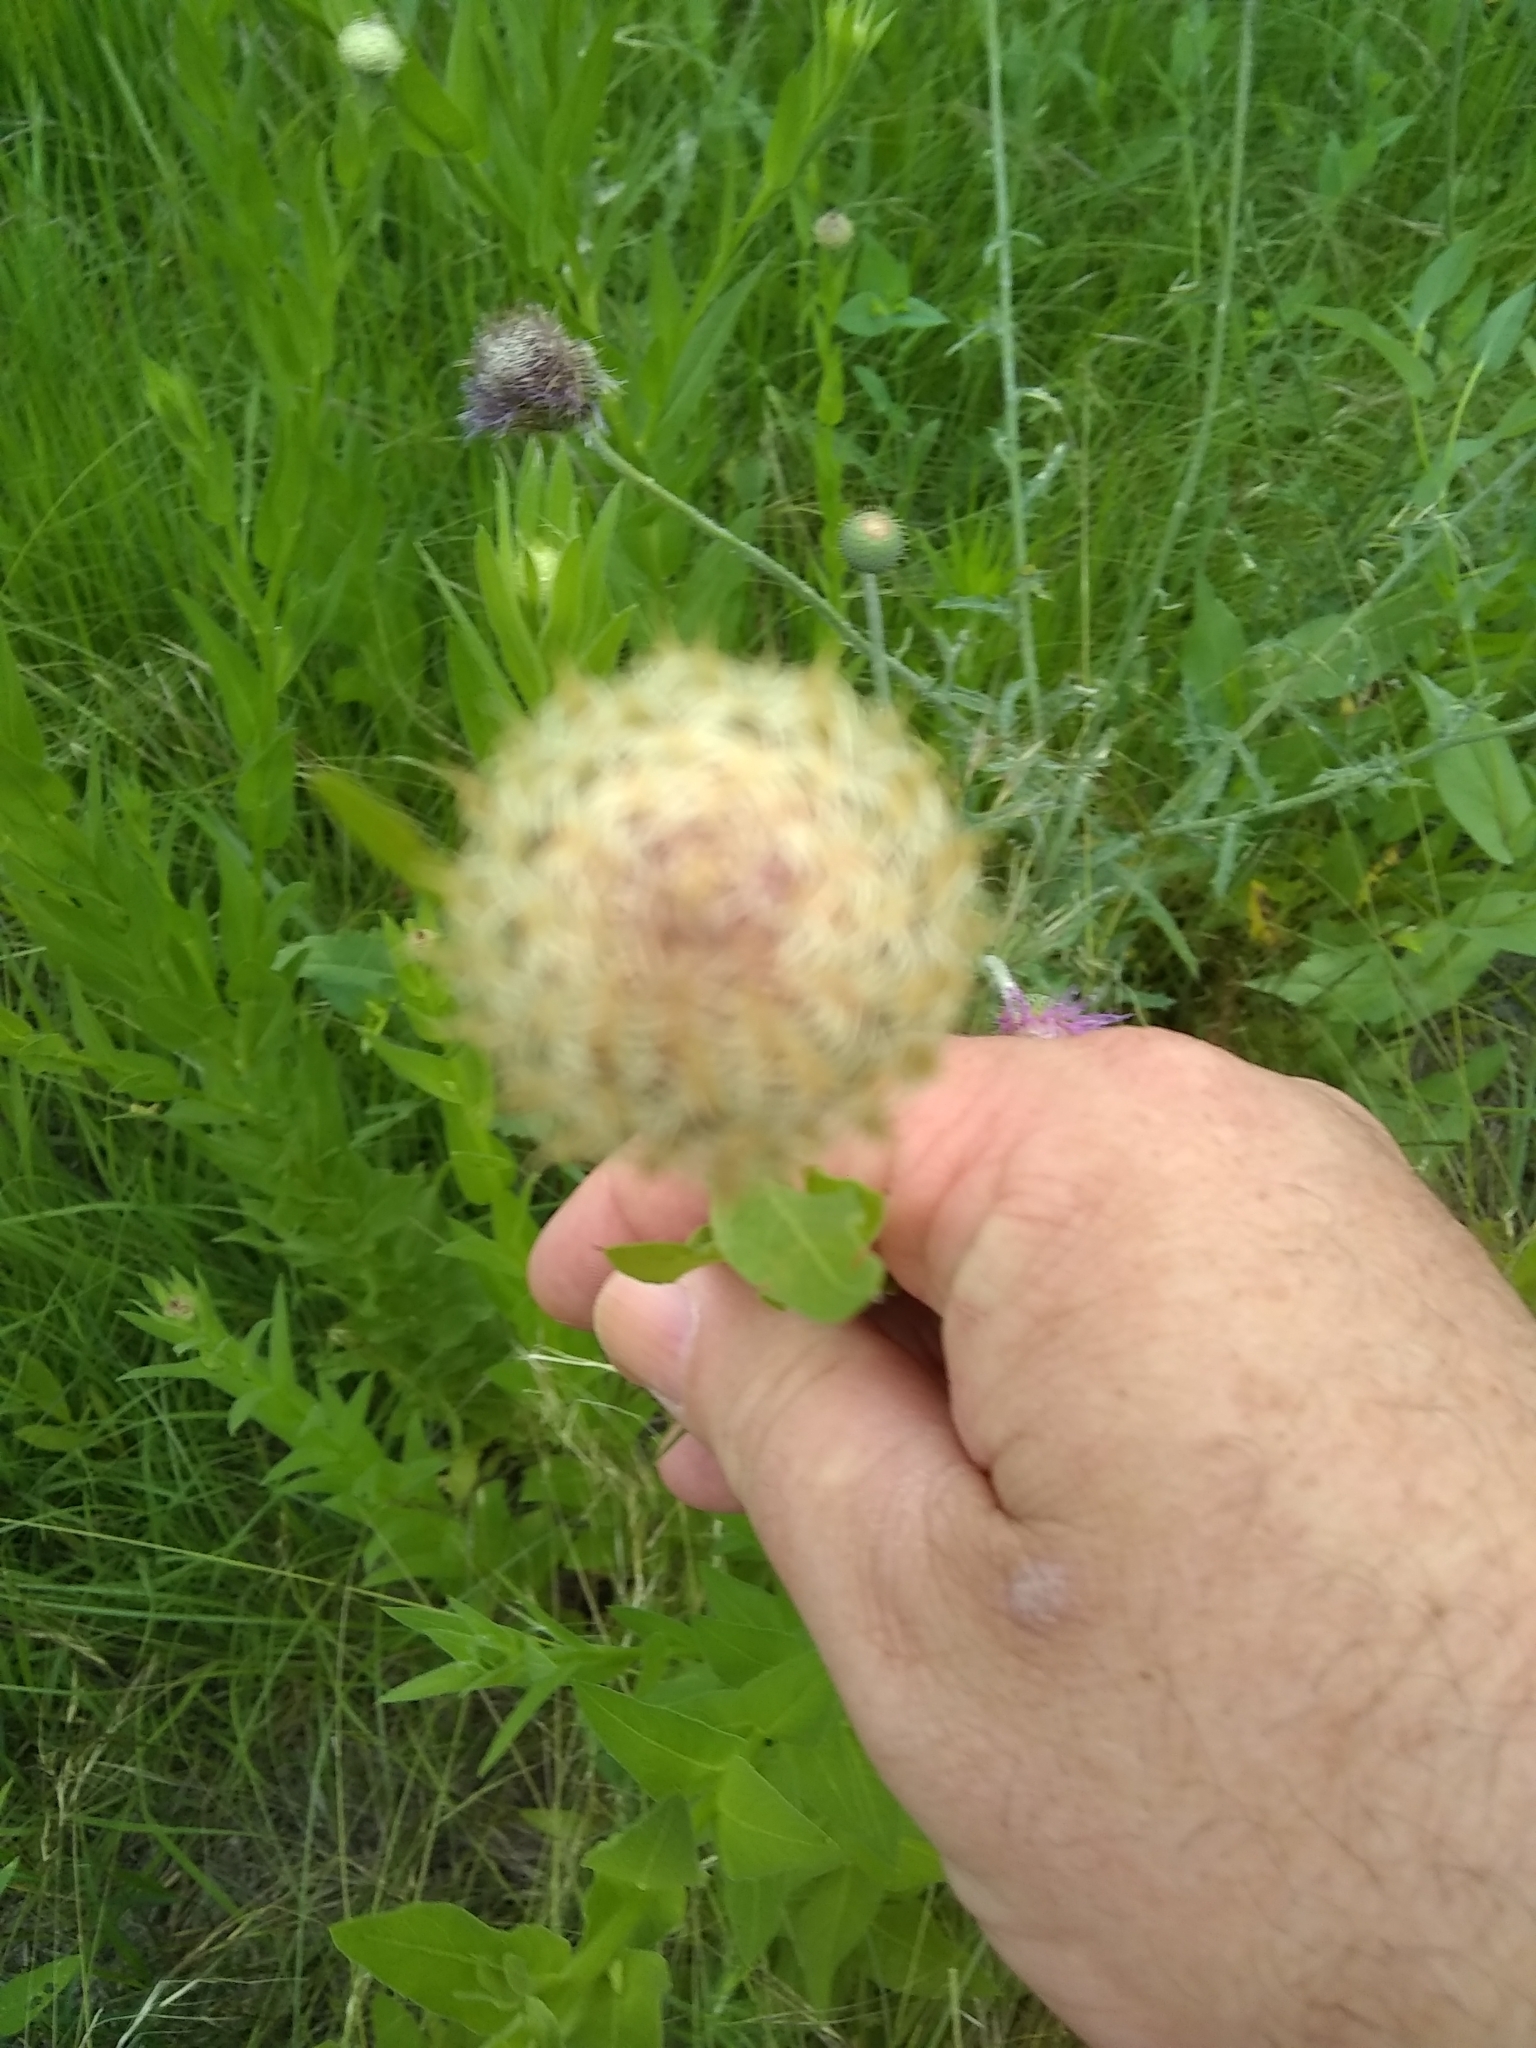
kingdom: Plantae
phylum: Tracheophyta
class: Magnoliopsida
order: Asterales
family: Asteraceae
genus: Plectocephalus
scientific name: Plectocephalus americanus
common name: American basket-flower
